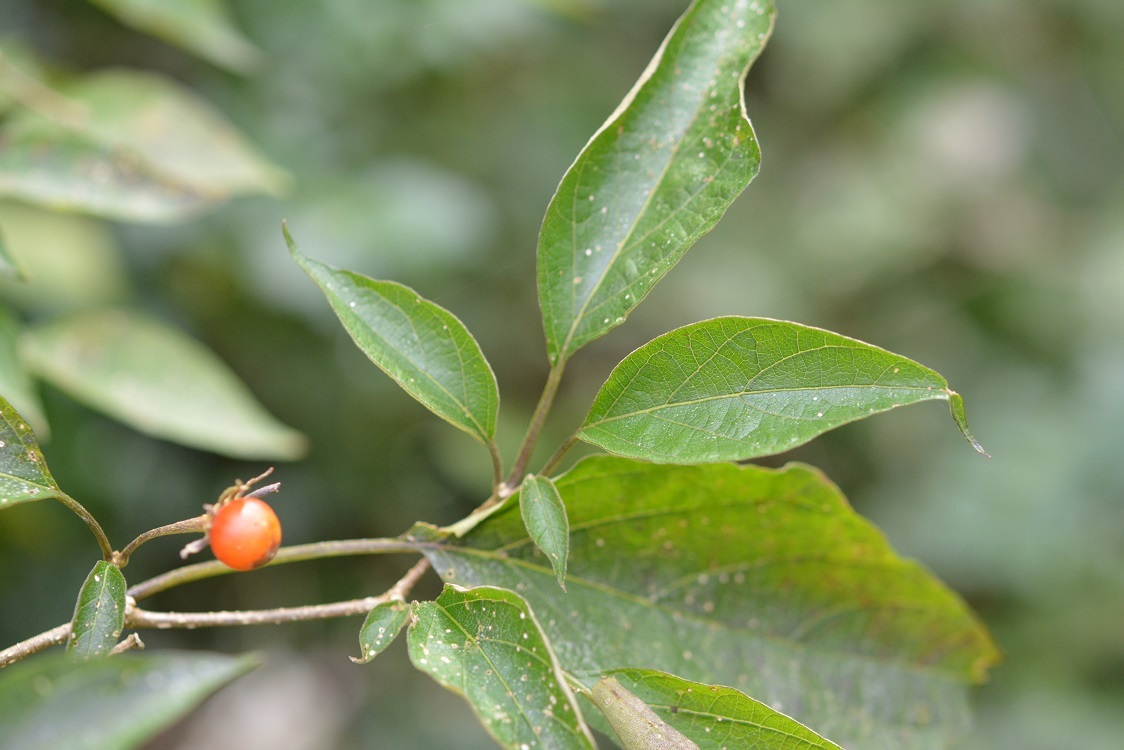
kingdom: Plantae
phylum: Tracheophyta
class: Magnoliopsida
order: Solanales
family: Solanaceae
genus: Lycianthes
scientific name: Lycianthes scandens
